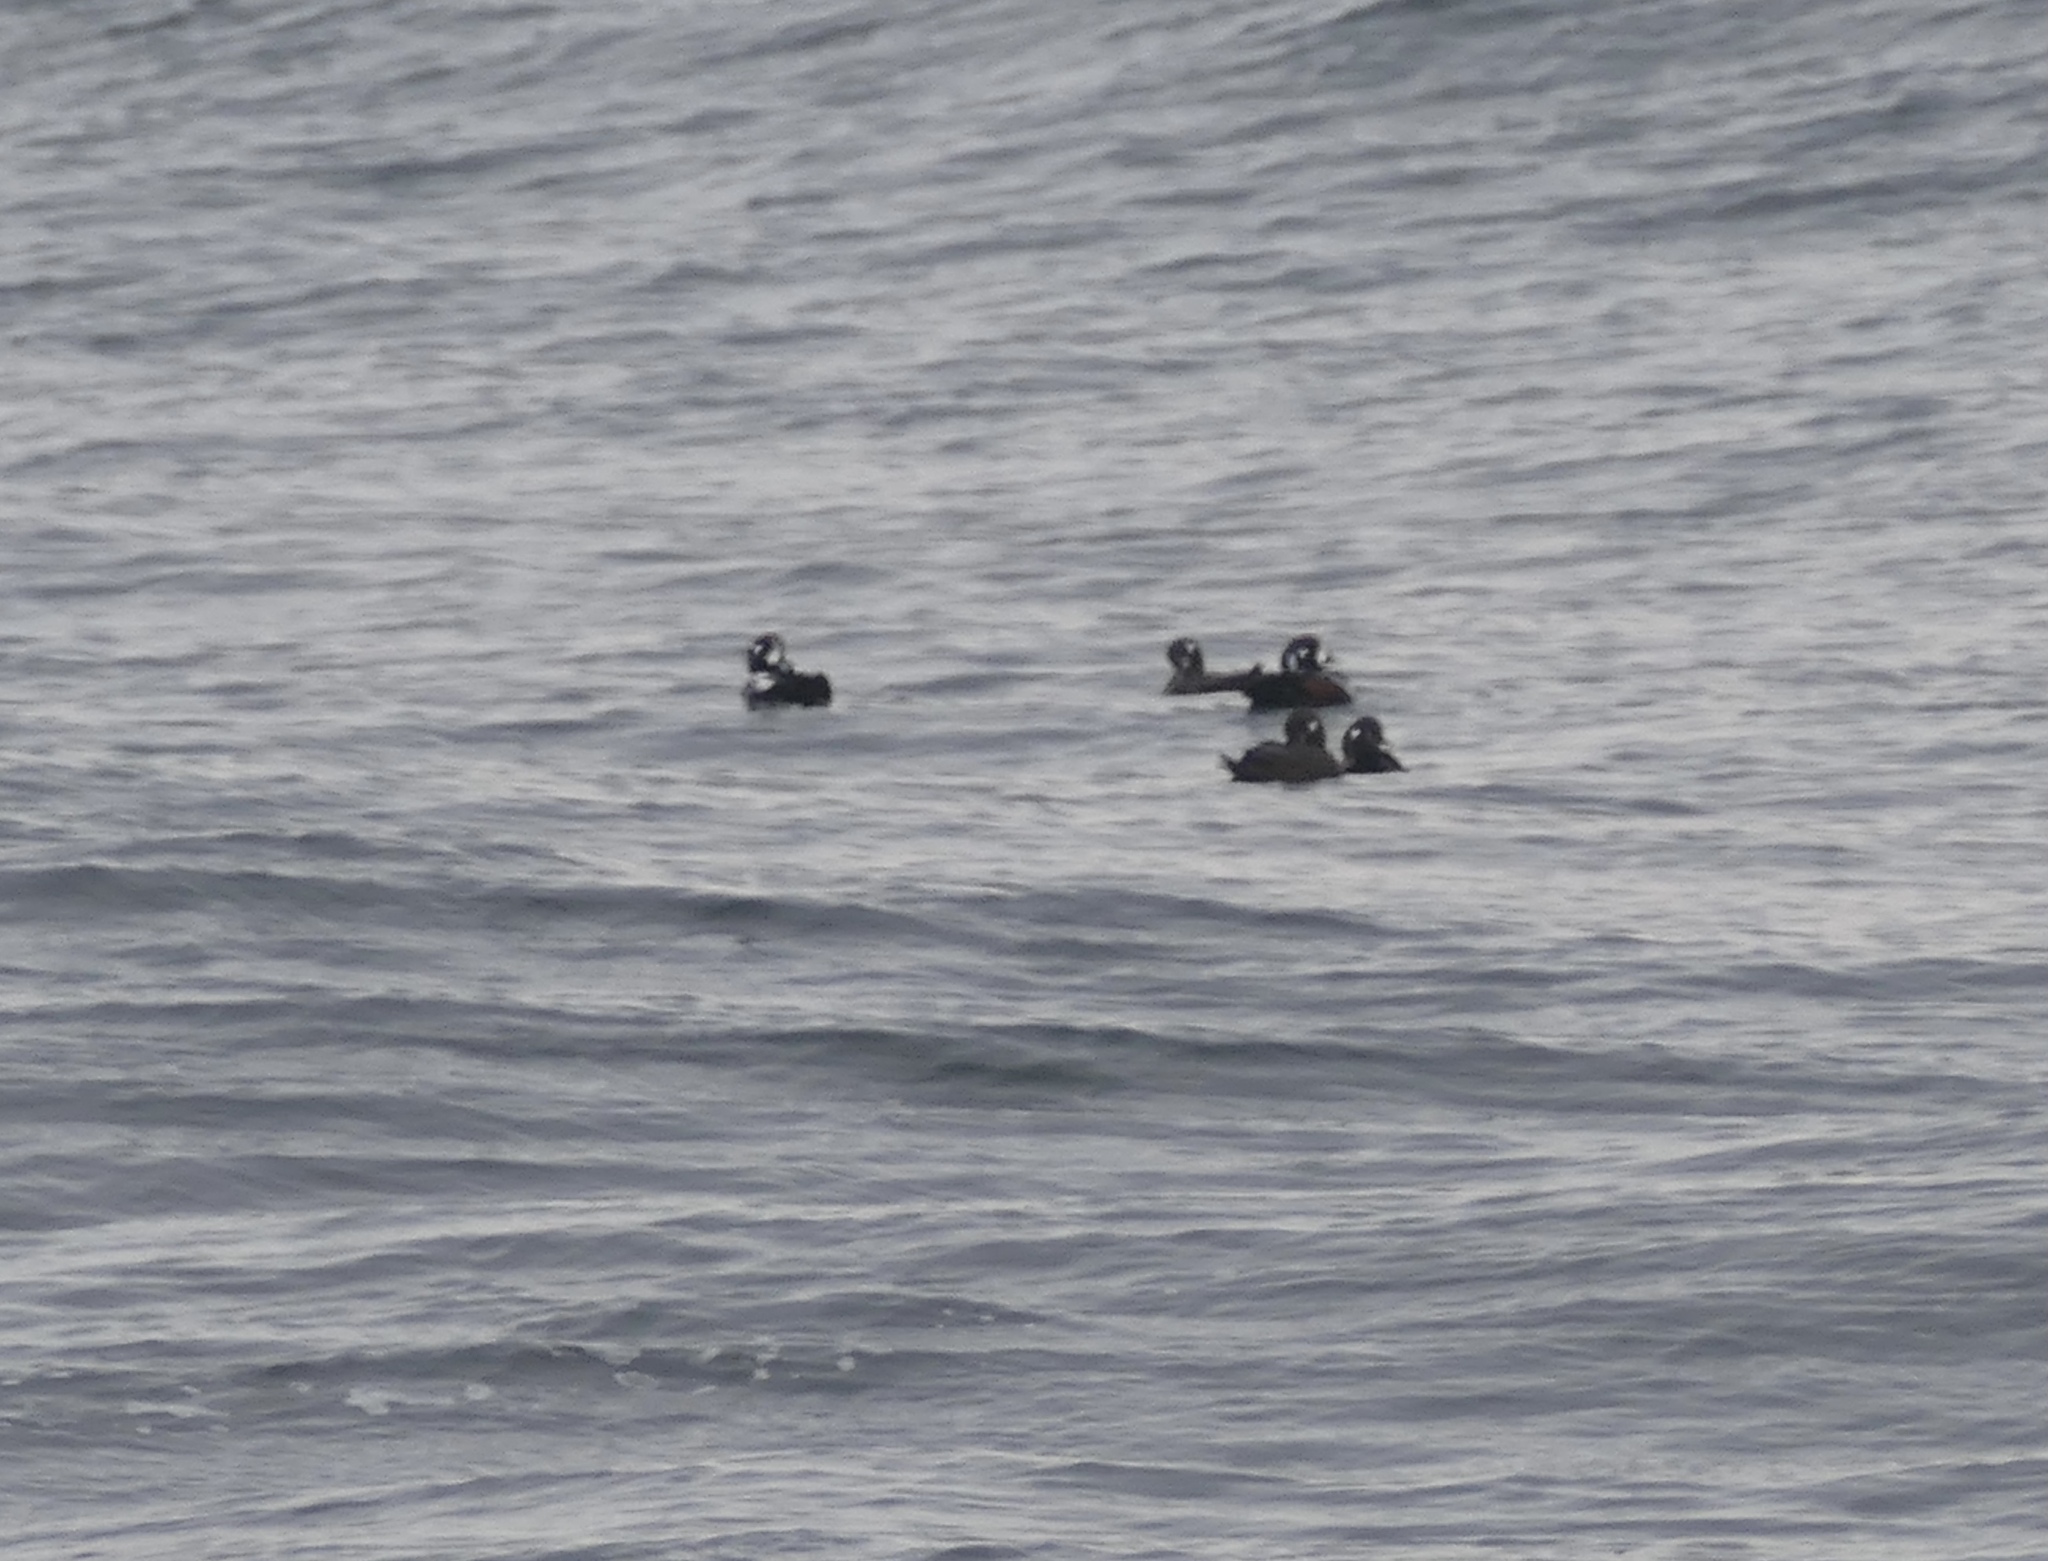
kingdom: Animalia
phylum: Chordata
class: Aves
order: Anseriformes
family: Anatidae
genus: Histrionicus
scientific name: Histrionicus histrionicus
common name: Harlequin duck
